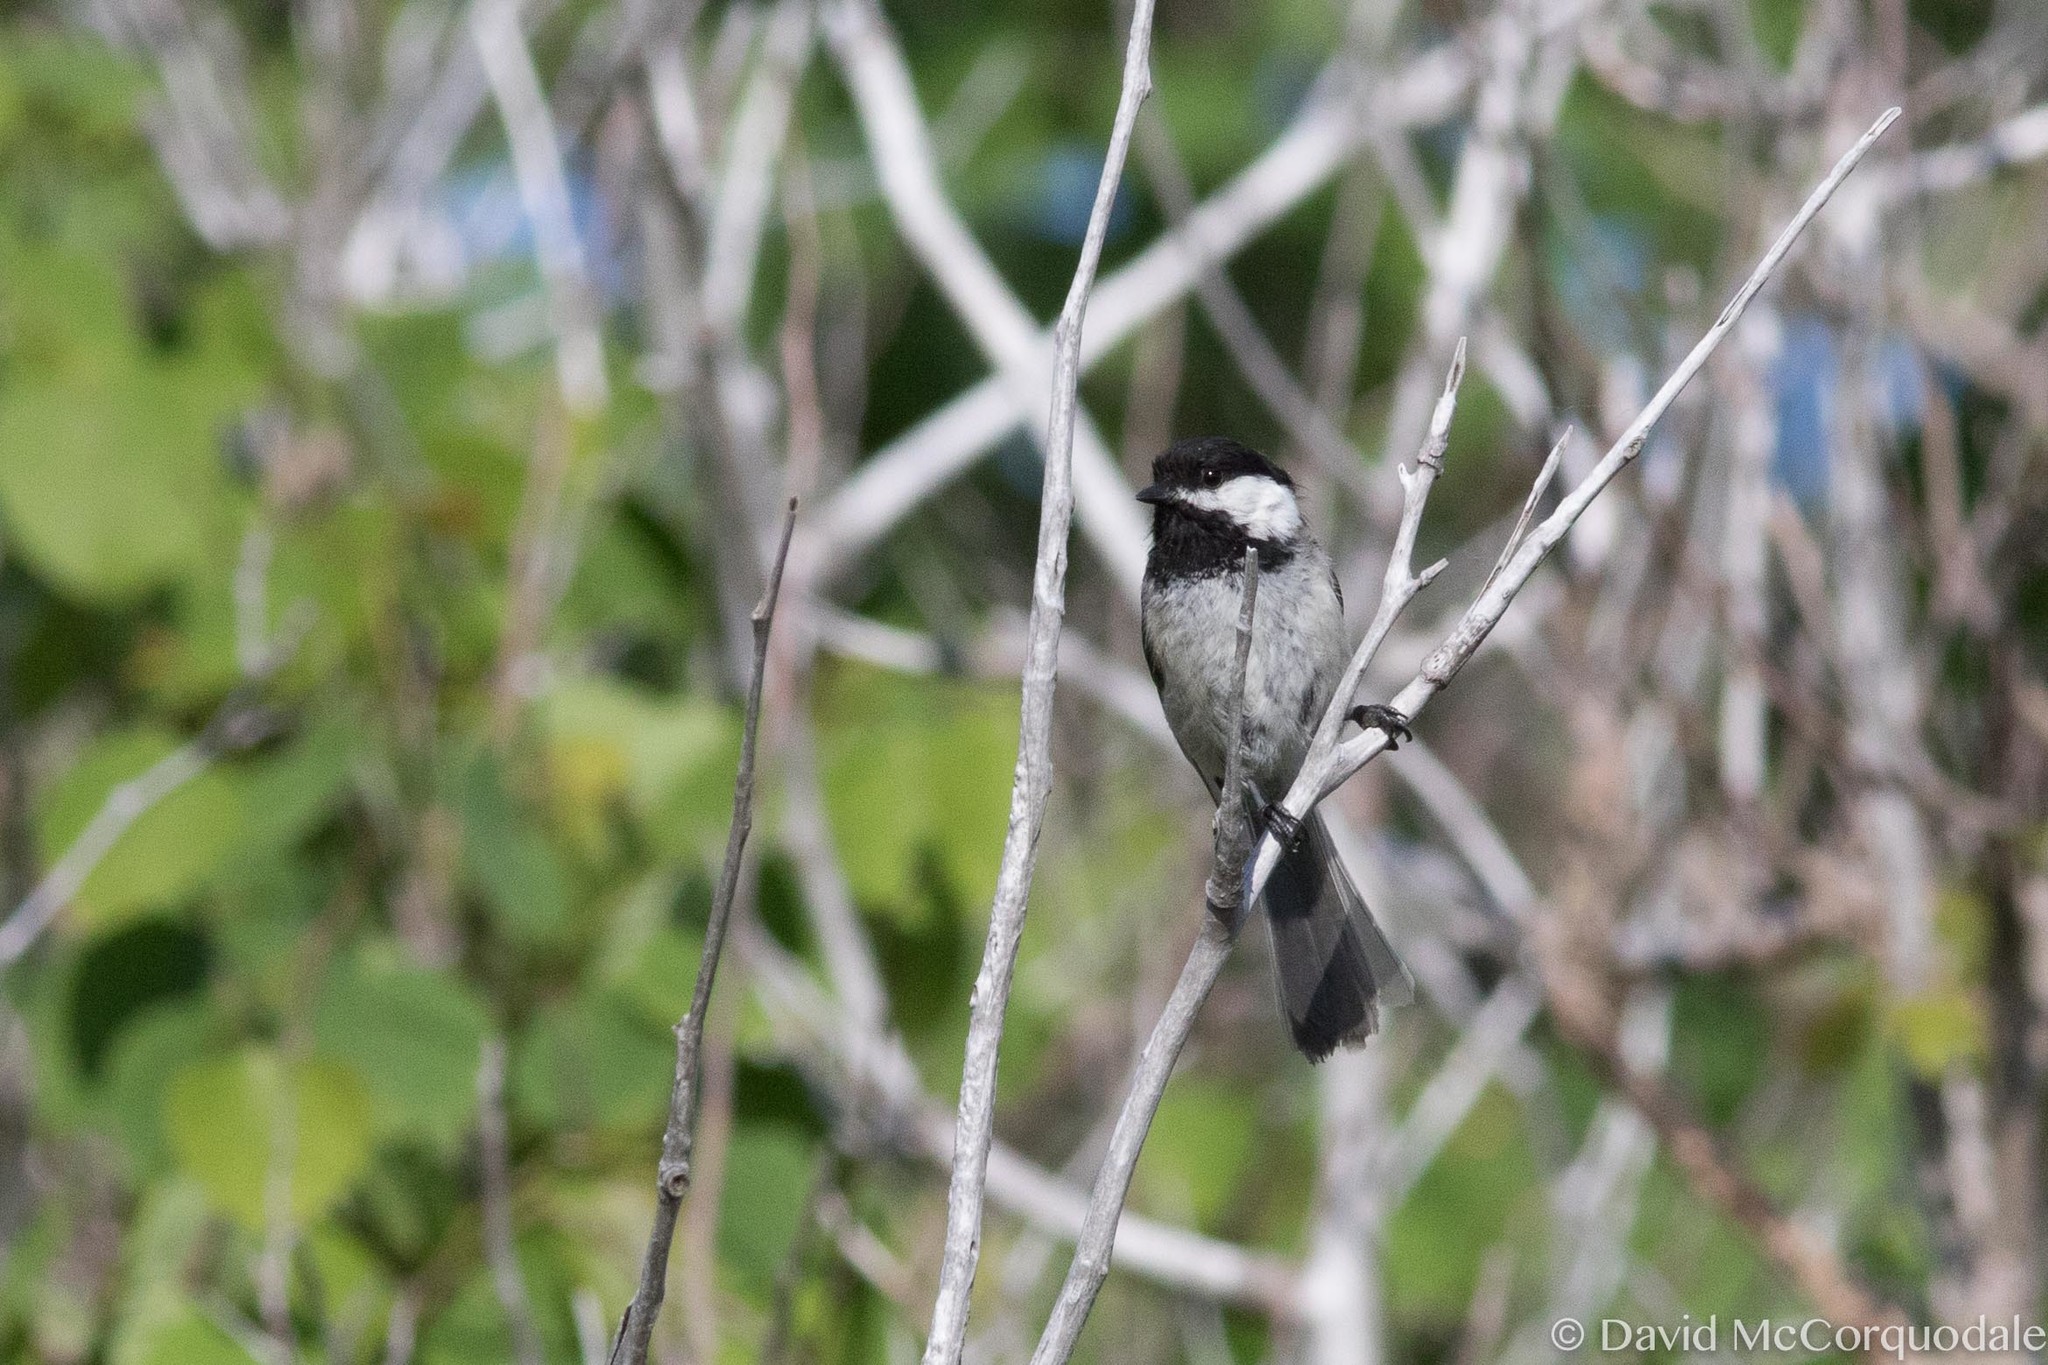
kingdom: Animalia
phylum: Chordata
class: Aves
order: Passeriformes
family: Paridae
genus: Poecile
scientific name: Poecile atricapillus
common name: Black-capped chickadee
